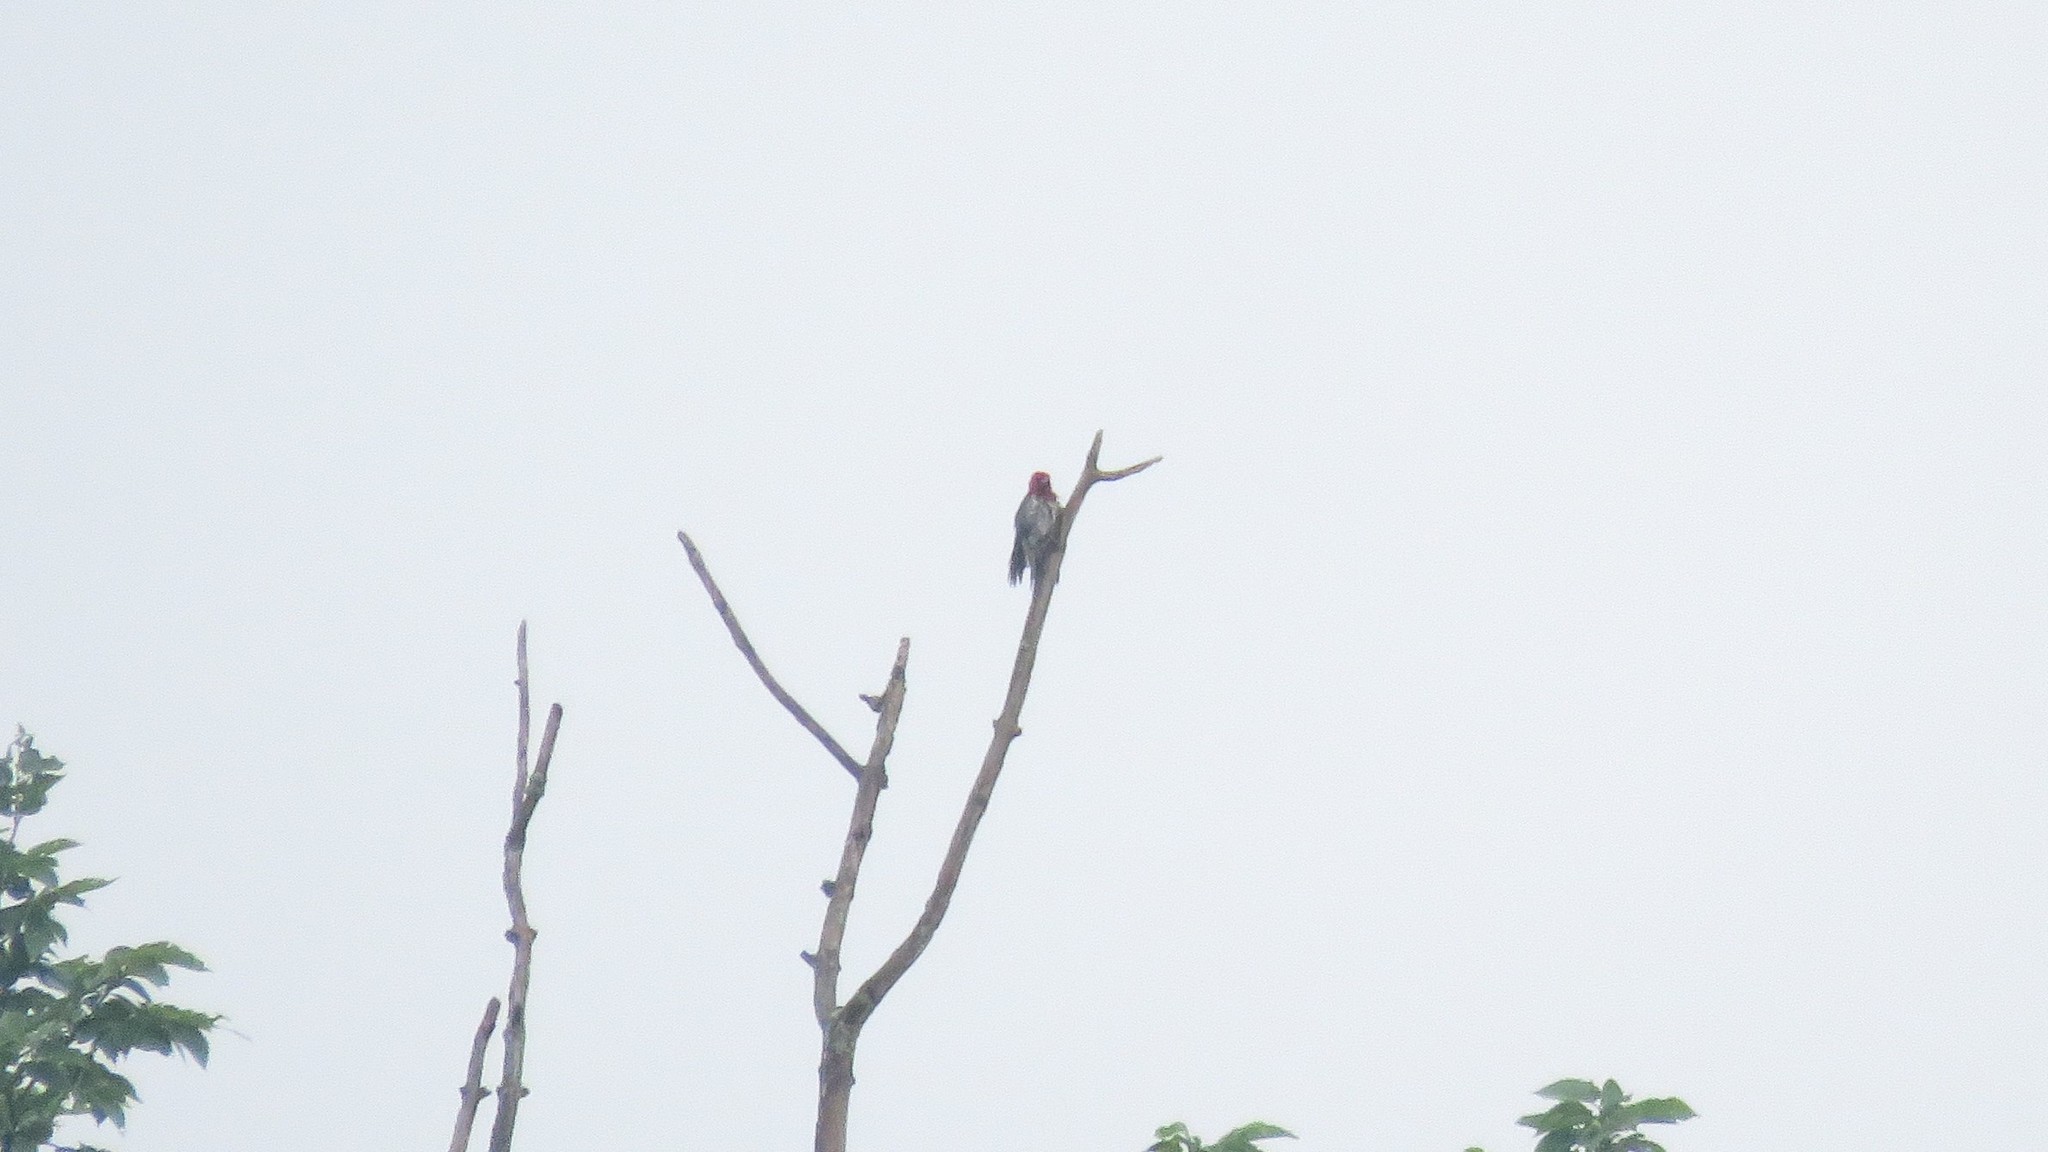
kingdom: Animalia
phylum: Chordata
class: Aves
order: Piciformes
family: Picidae
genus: Melanerpes
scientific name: Melanerpes erythrocephalus
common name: Red-headed woodpecker
